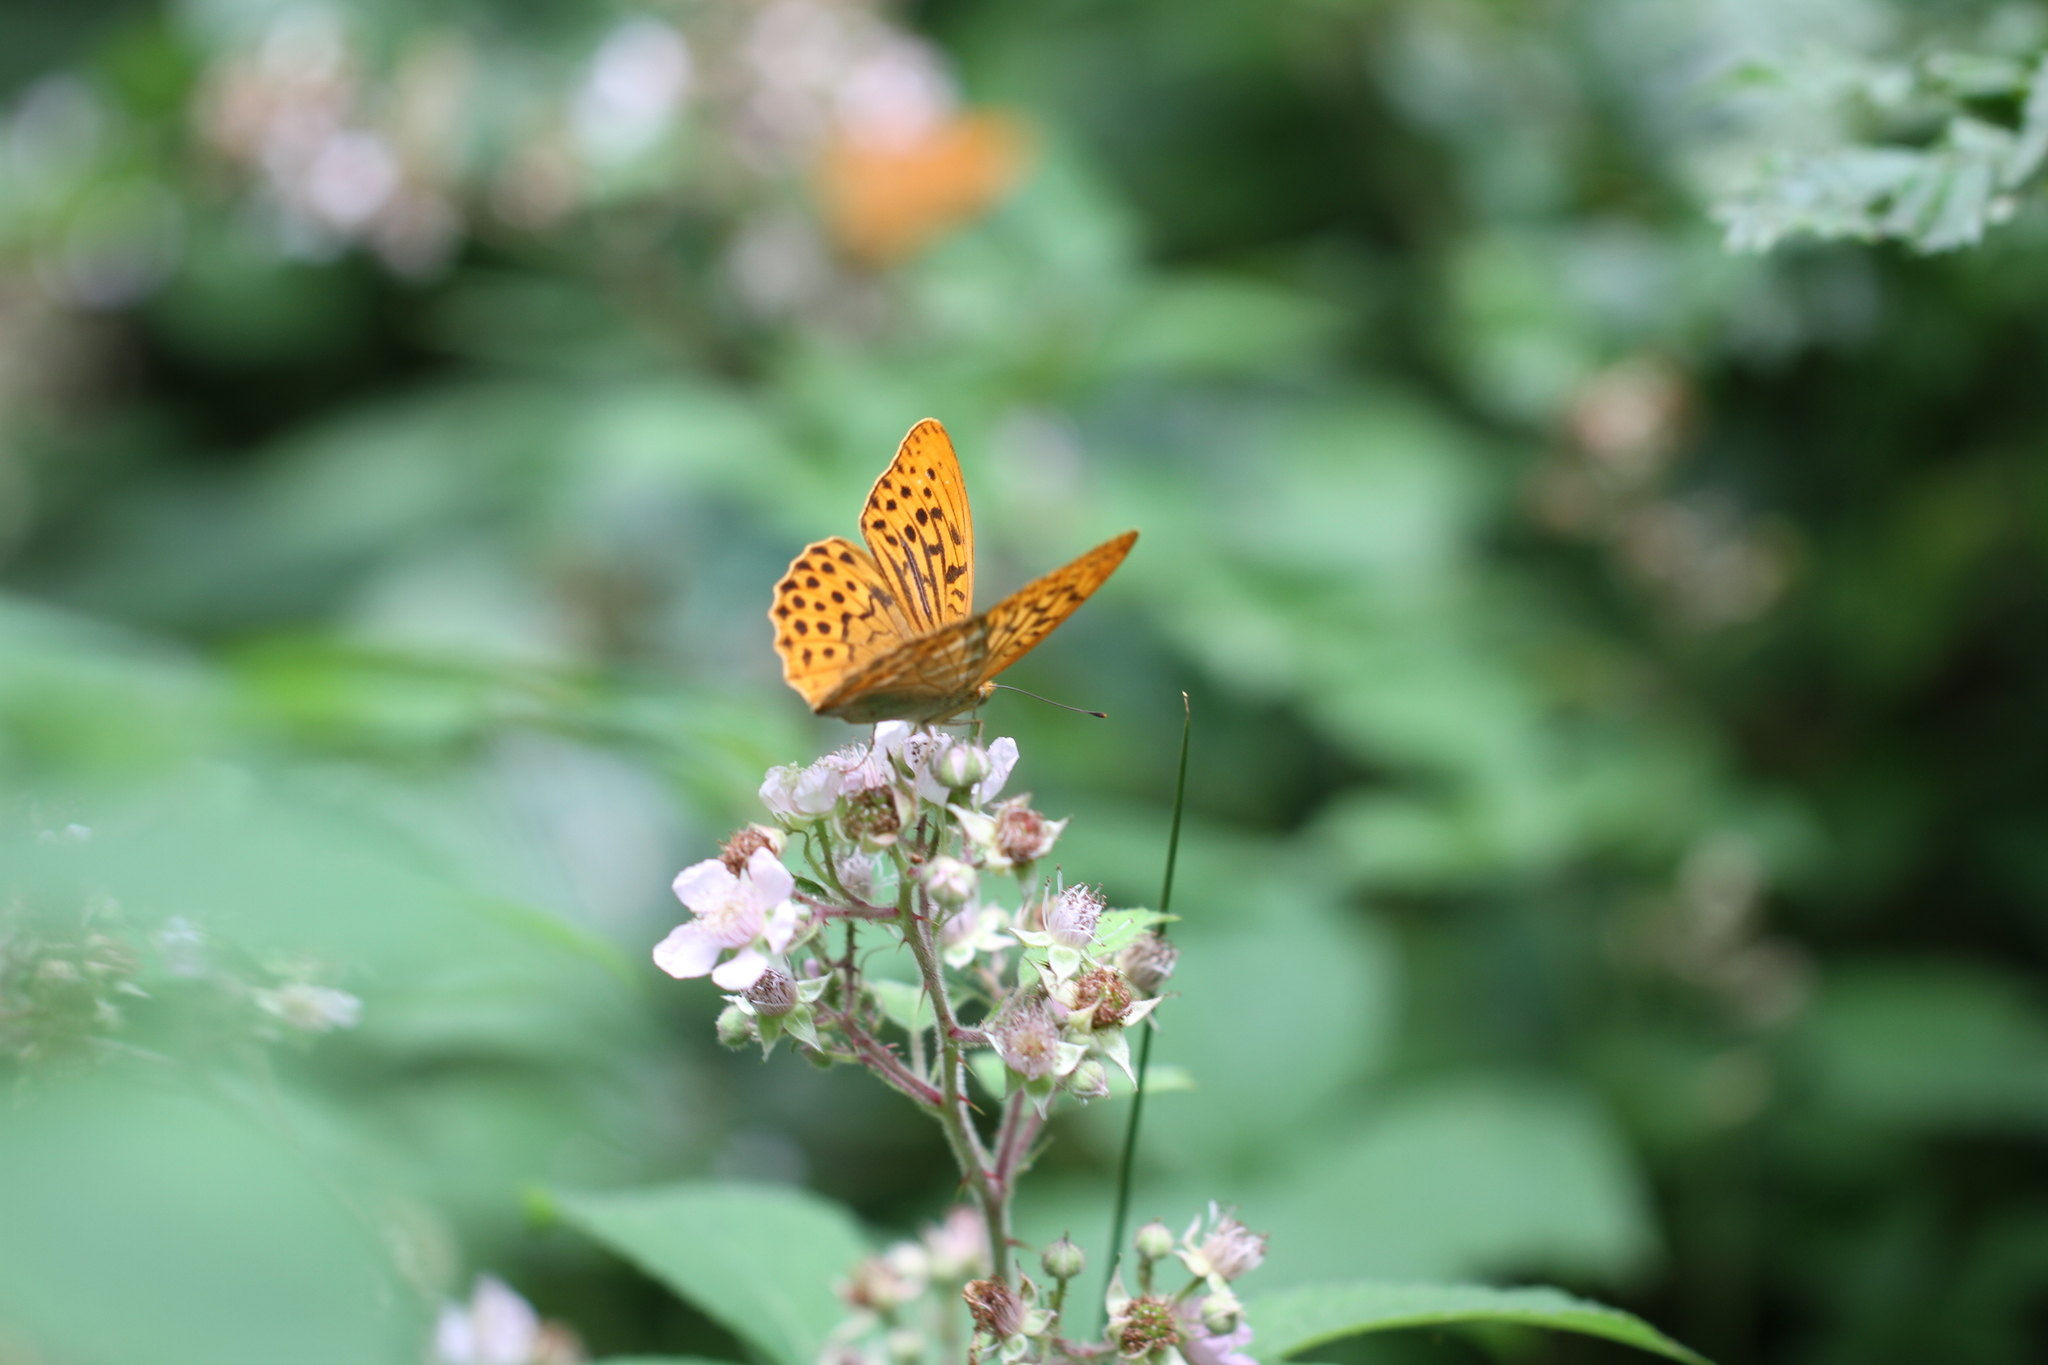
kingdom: Animalia
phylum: Arthropoda
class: Insecta
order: Lepidoptera
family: Nymphalidae
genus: Argynnis
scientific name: Argynnis paphia
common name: Silver-washed fritillary
